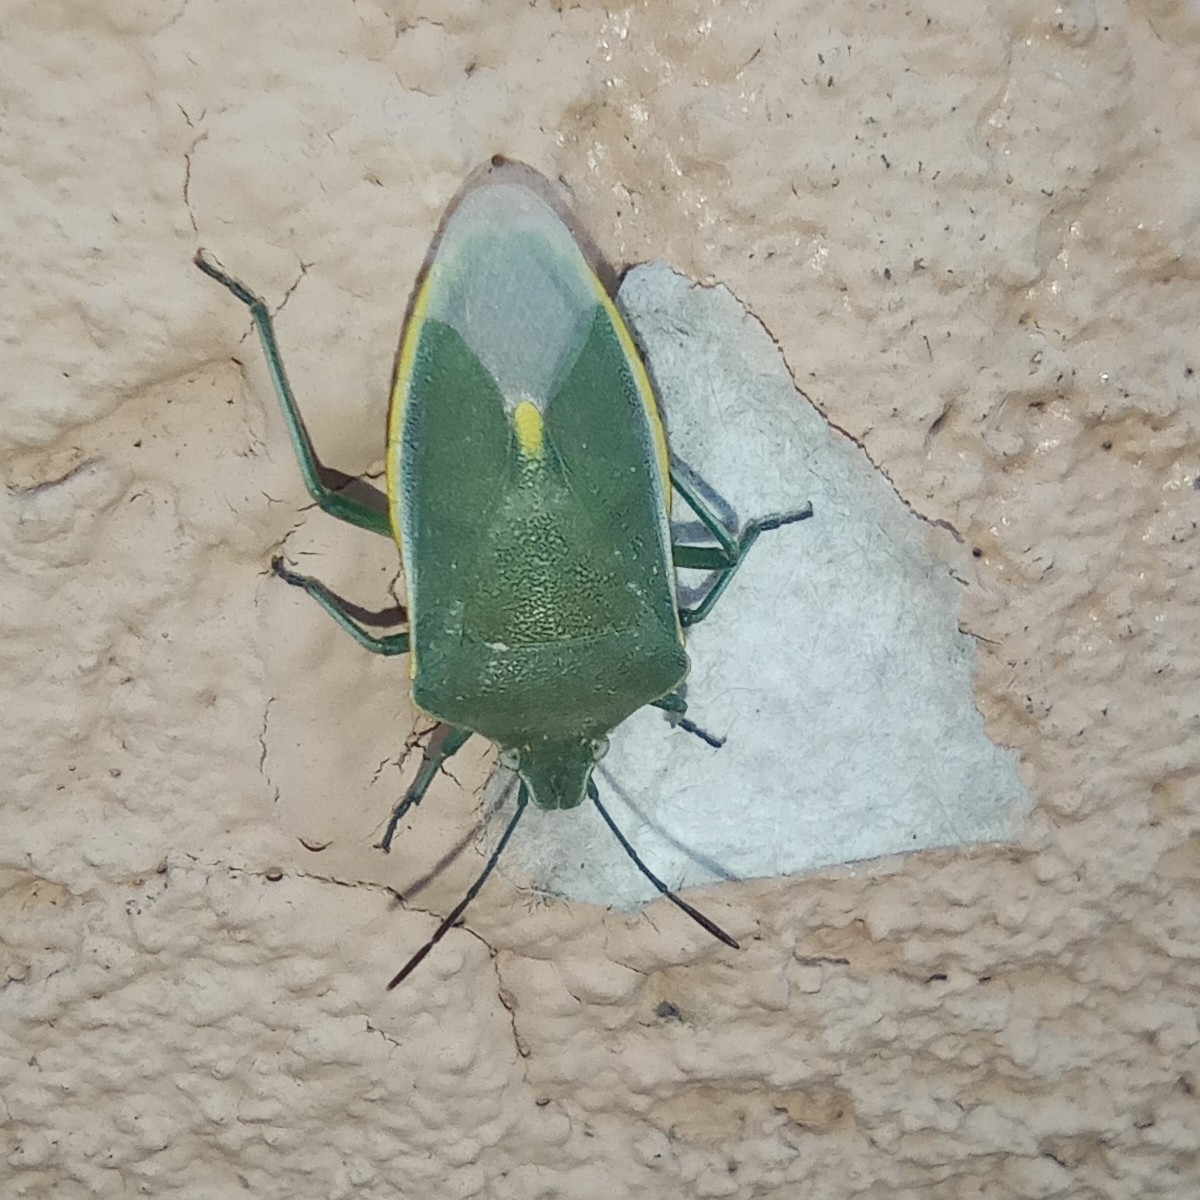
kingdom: Animalia
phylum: Arthropoda
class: Insecta
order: Hemiptera
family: Pentatomidae
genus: Brachynema
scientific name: Brachynema germarii
